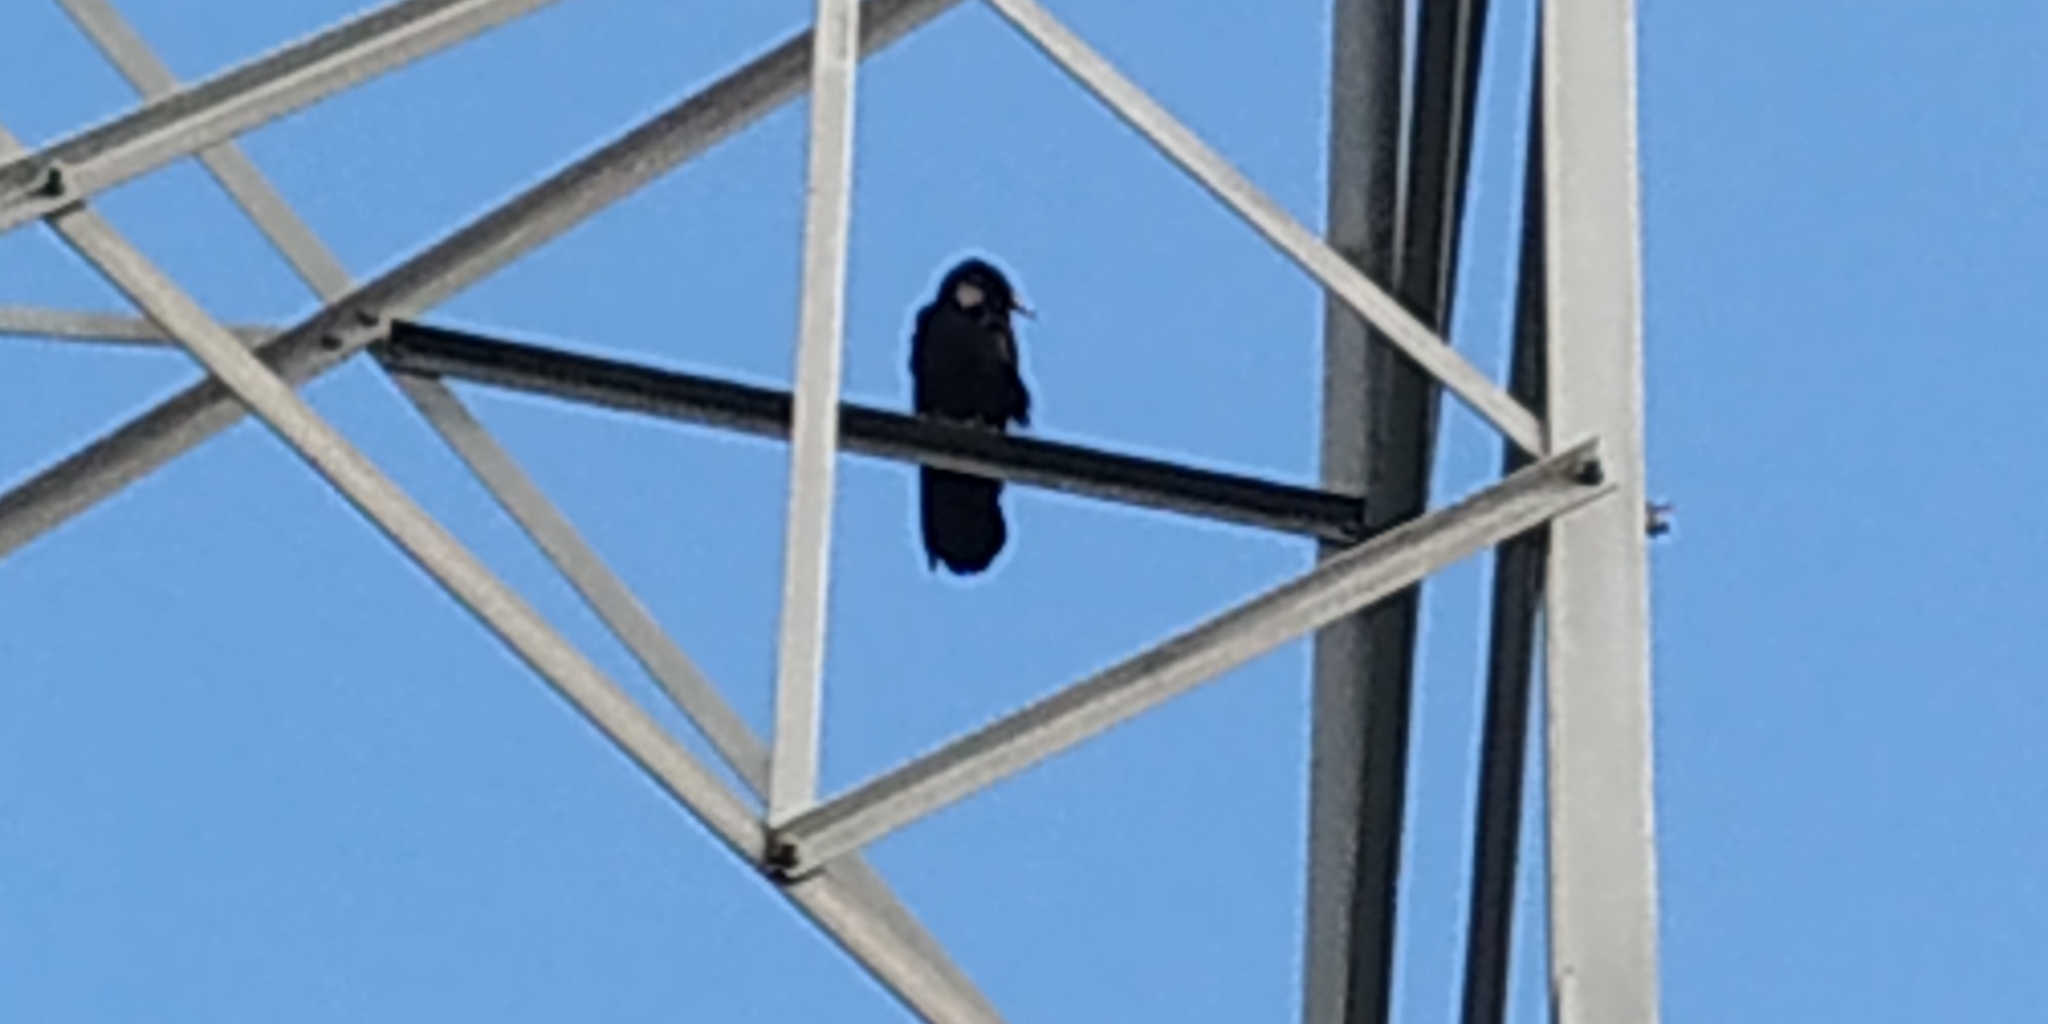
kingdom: Animalia
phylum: Chordata
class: Aves
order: Passeriformes
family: Corvidae
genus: Corvus
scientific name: Corvus imparatus
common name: Tamaulipas crow
